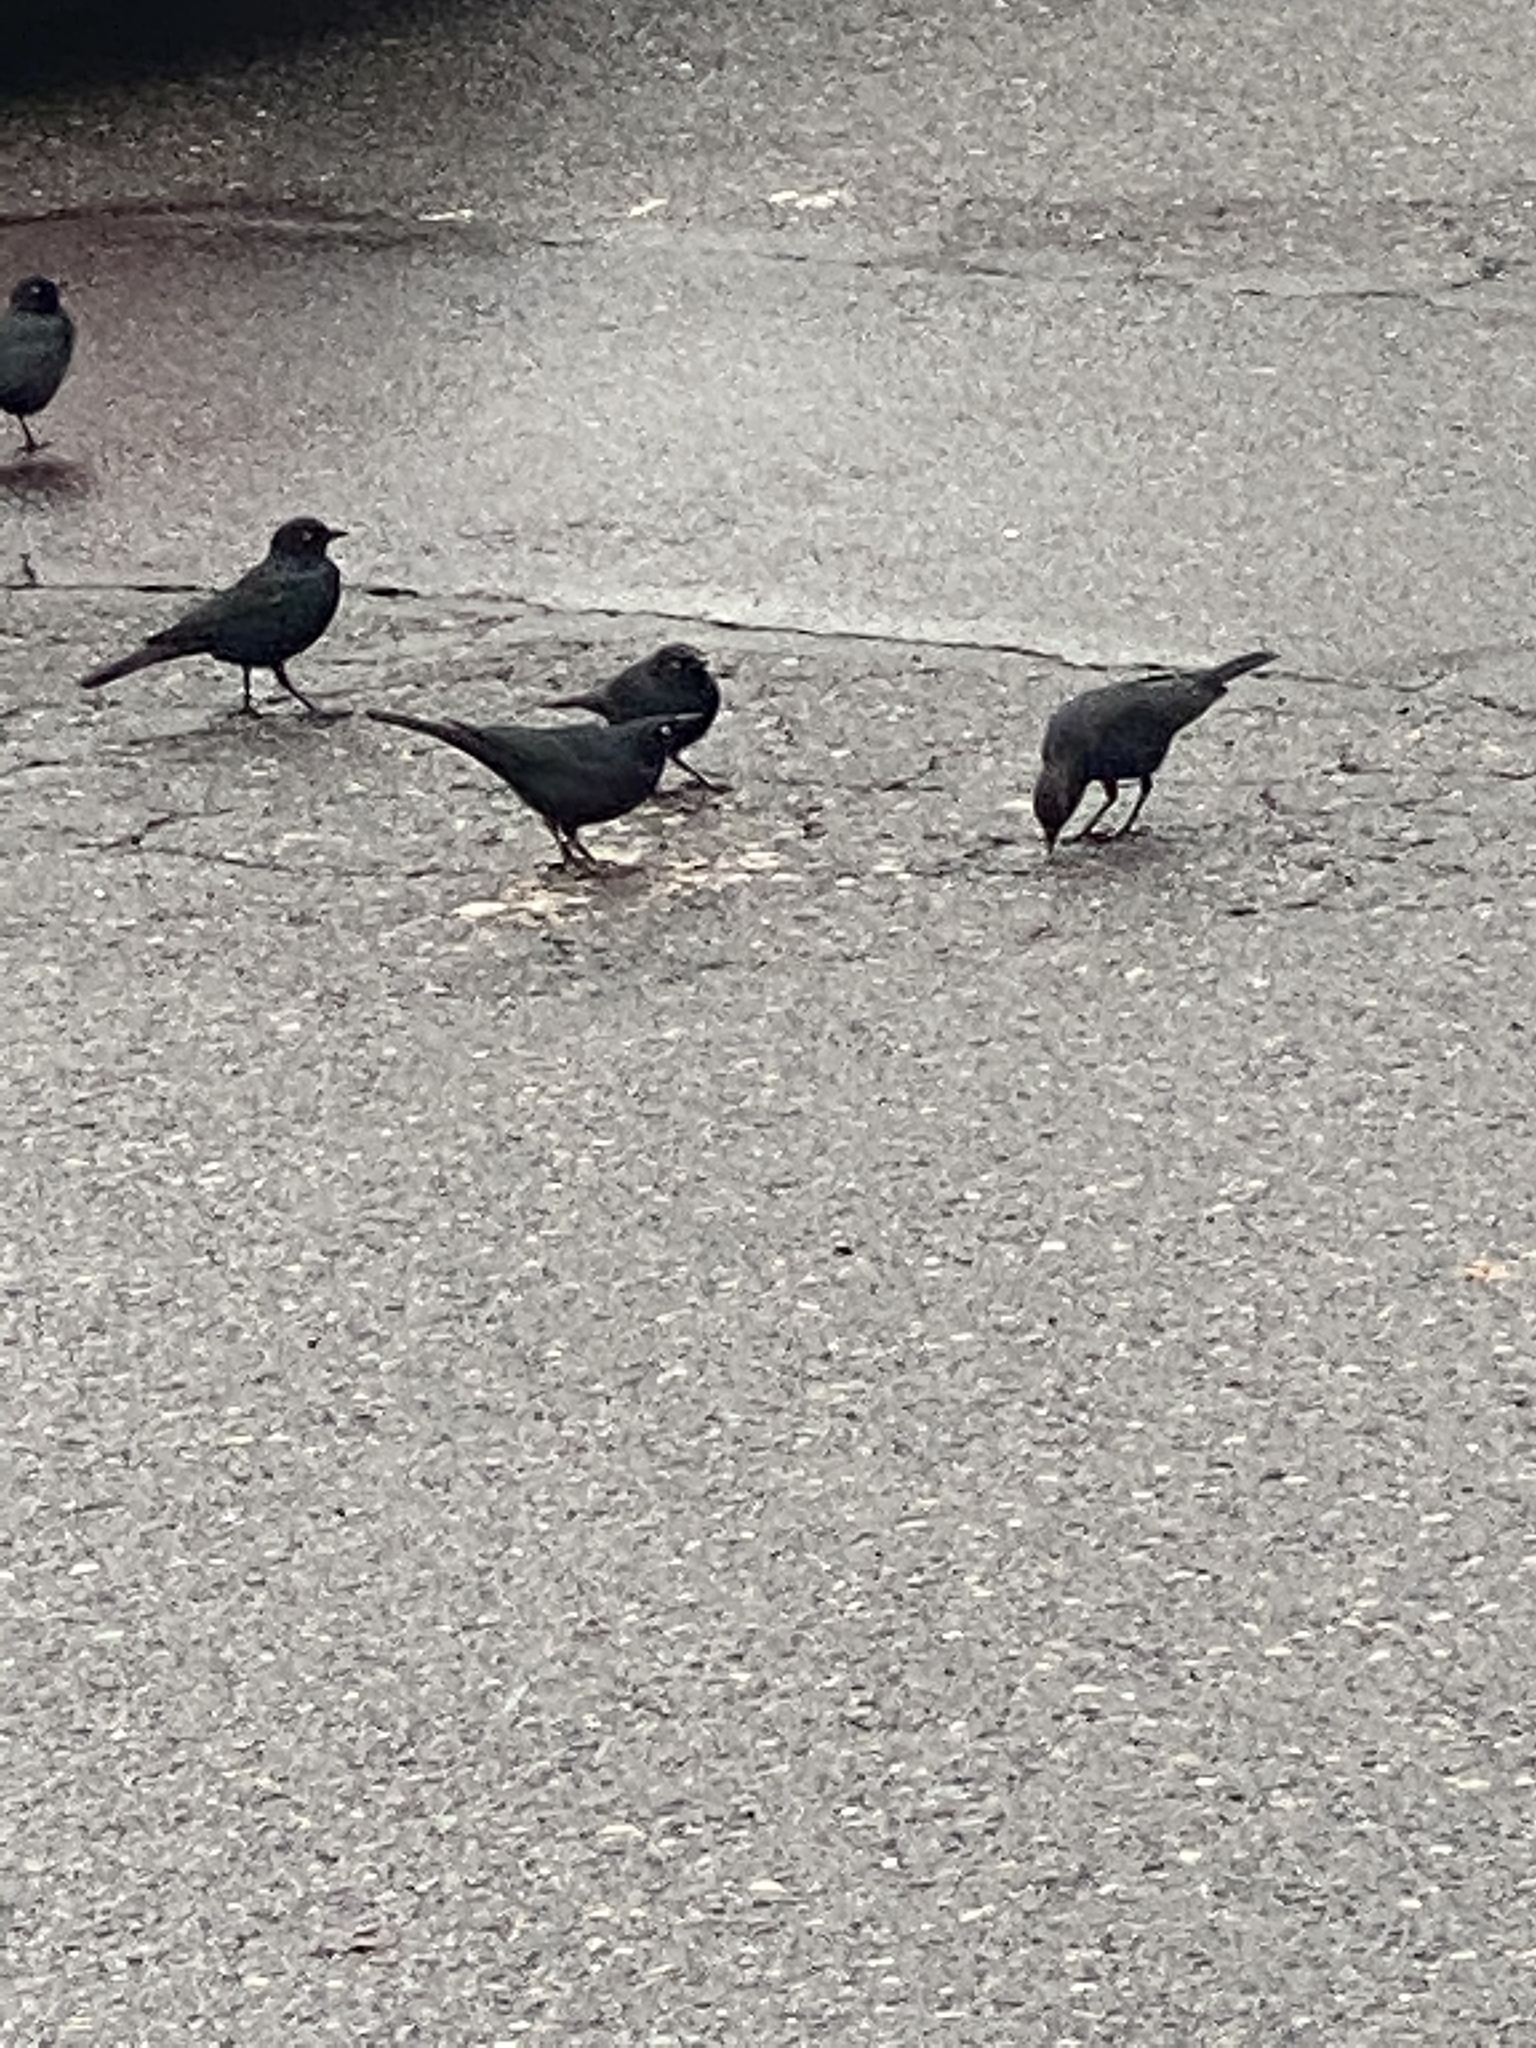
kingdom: Animalia
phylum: Chordata
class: Aves
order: Passeriformes
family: Icteridae
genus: Euphagus
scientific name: Euphagus cyanocephalus
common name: Brewer's blackbird
